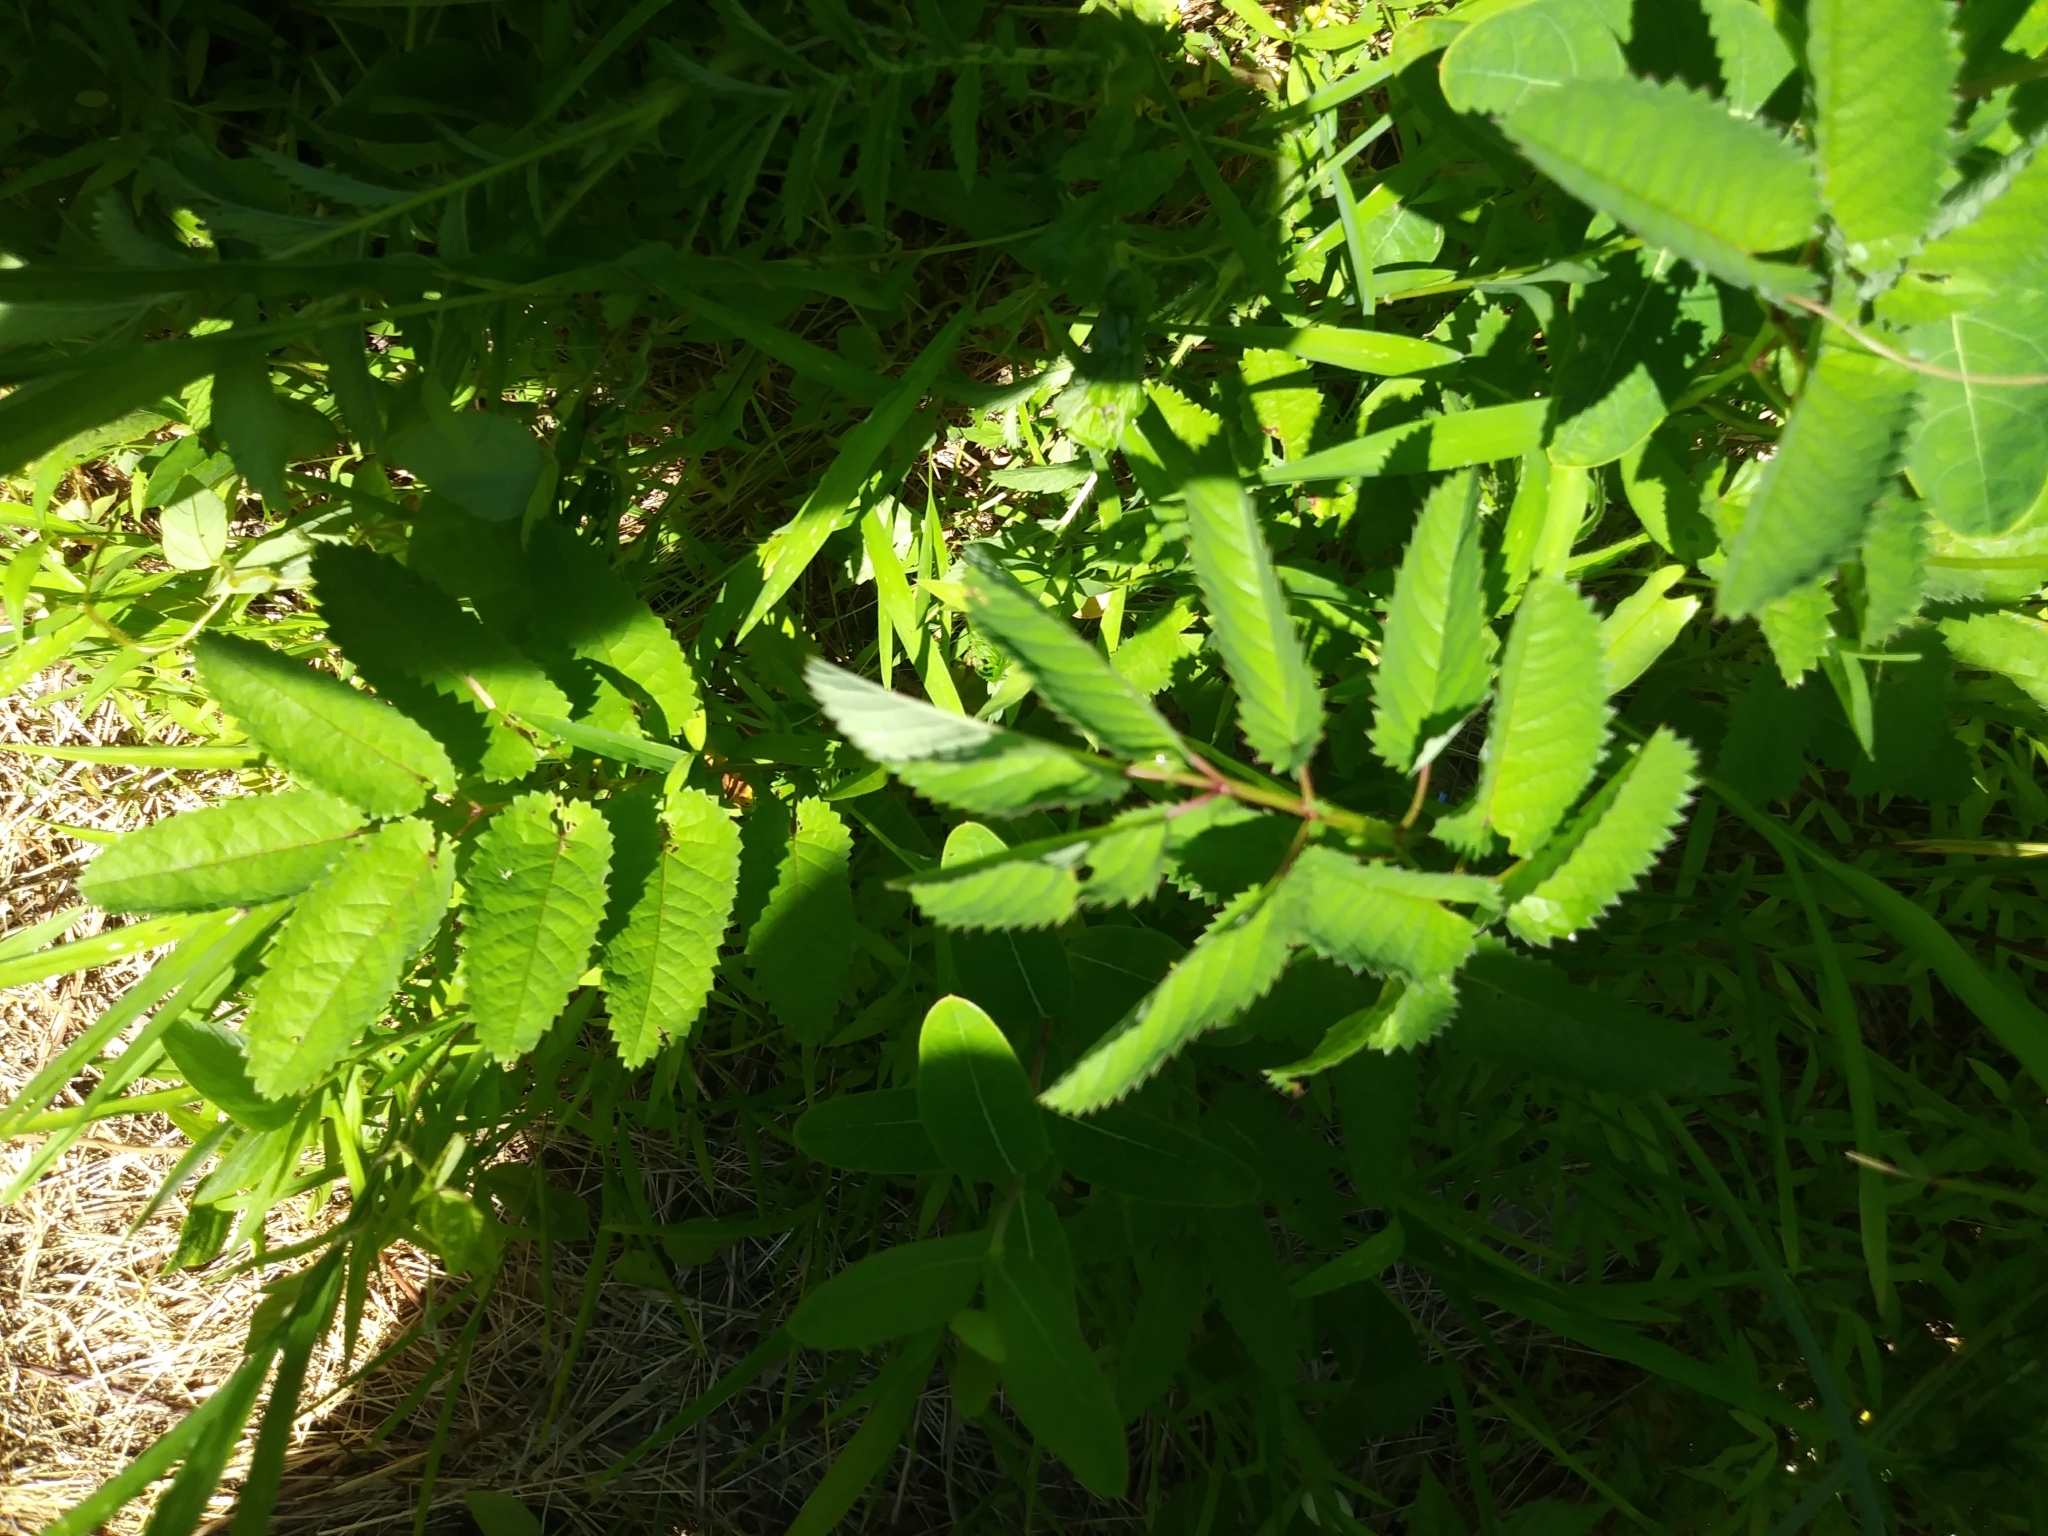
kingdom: Plantae
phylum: Tracheophyta
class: Magnoliopsida
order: Rosales
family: Rosaceae
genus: Sanguisorba
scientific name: Sanguisorba canadensis
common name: White burnet
